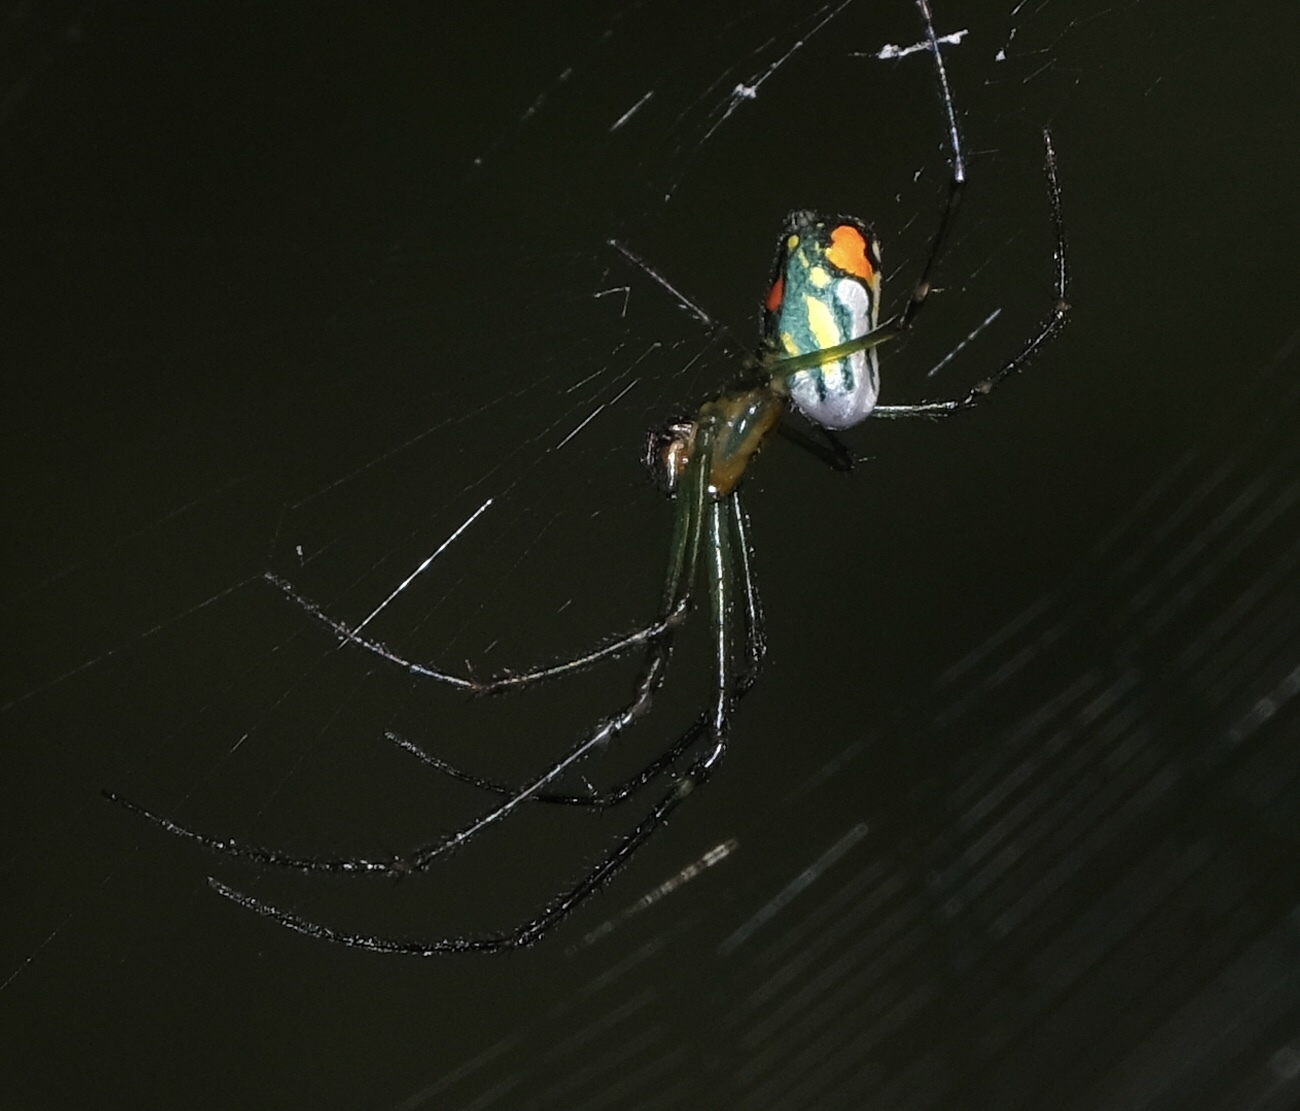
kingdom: Animalia
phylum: Arthropoda
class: Arachnida
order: Araneae
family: Tetragnathidae
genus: Leucauge
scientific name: Leucauge argyrobapta
